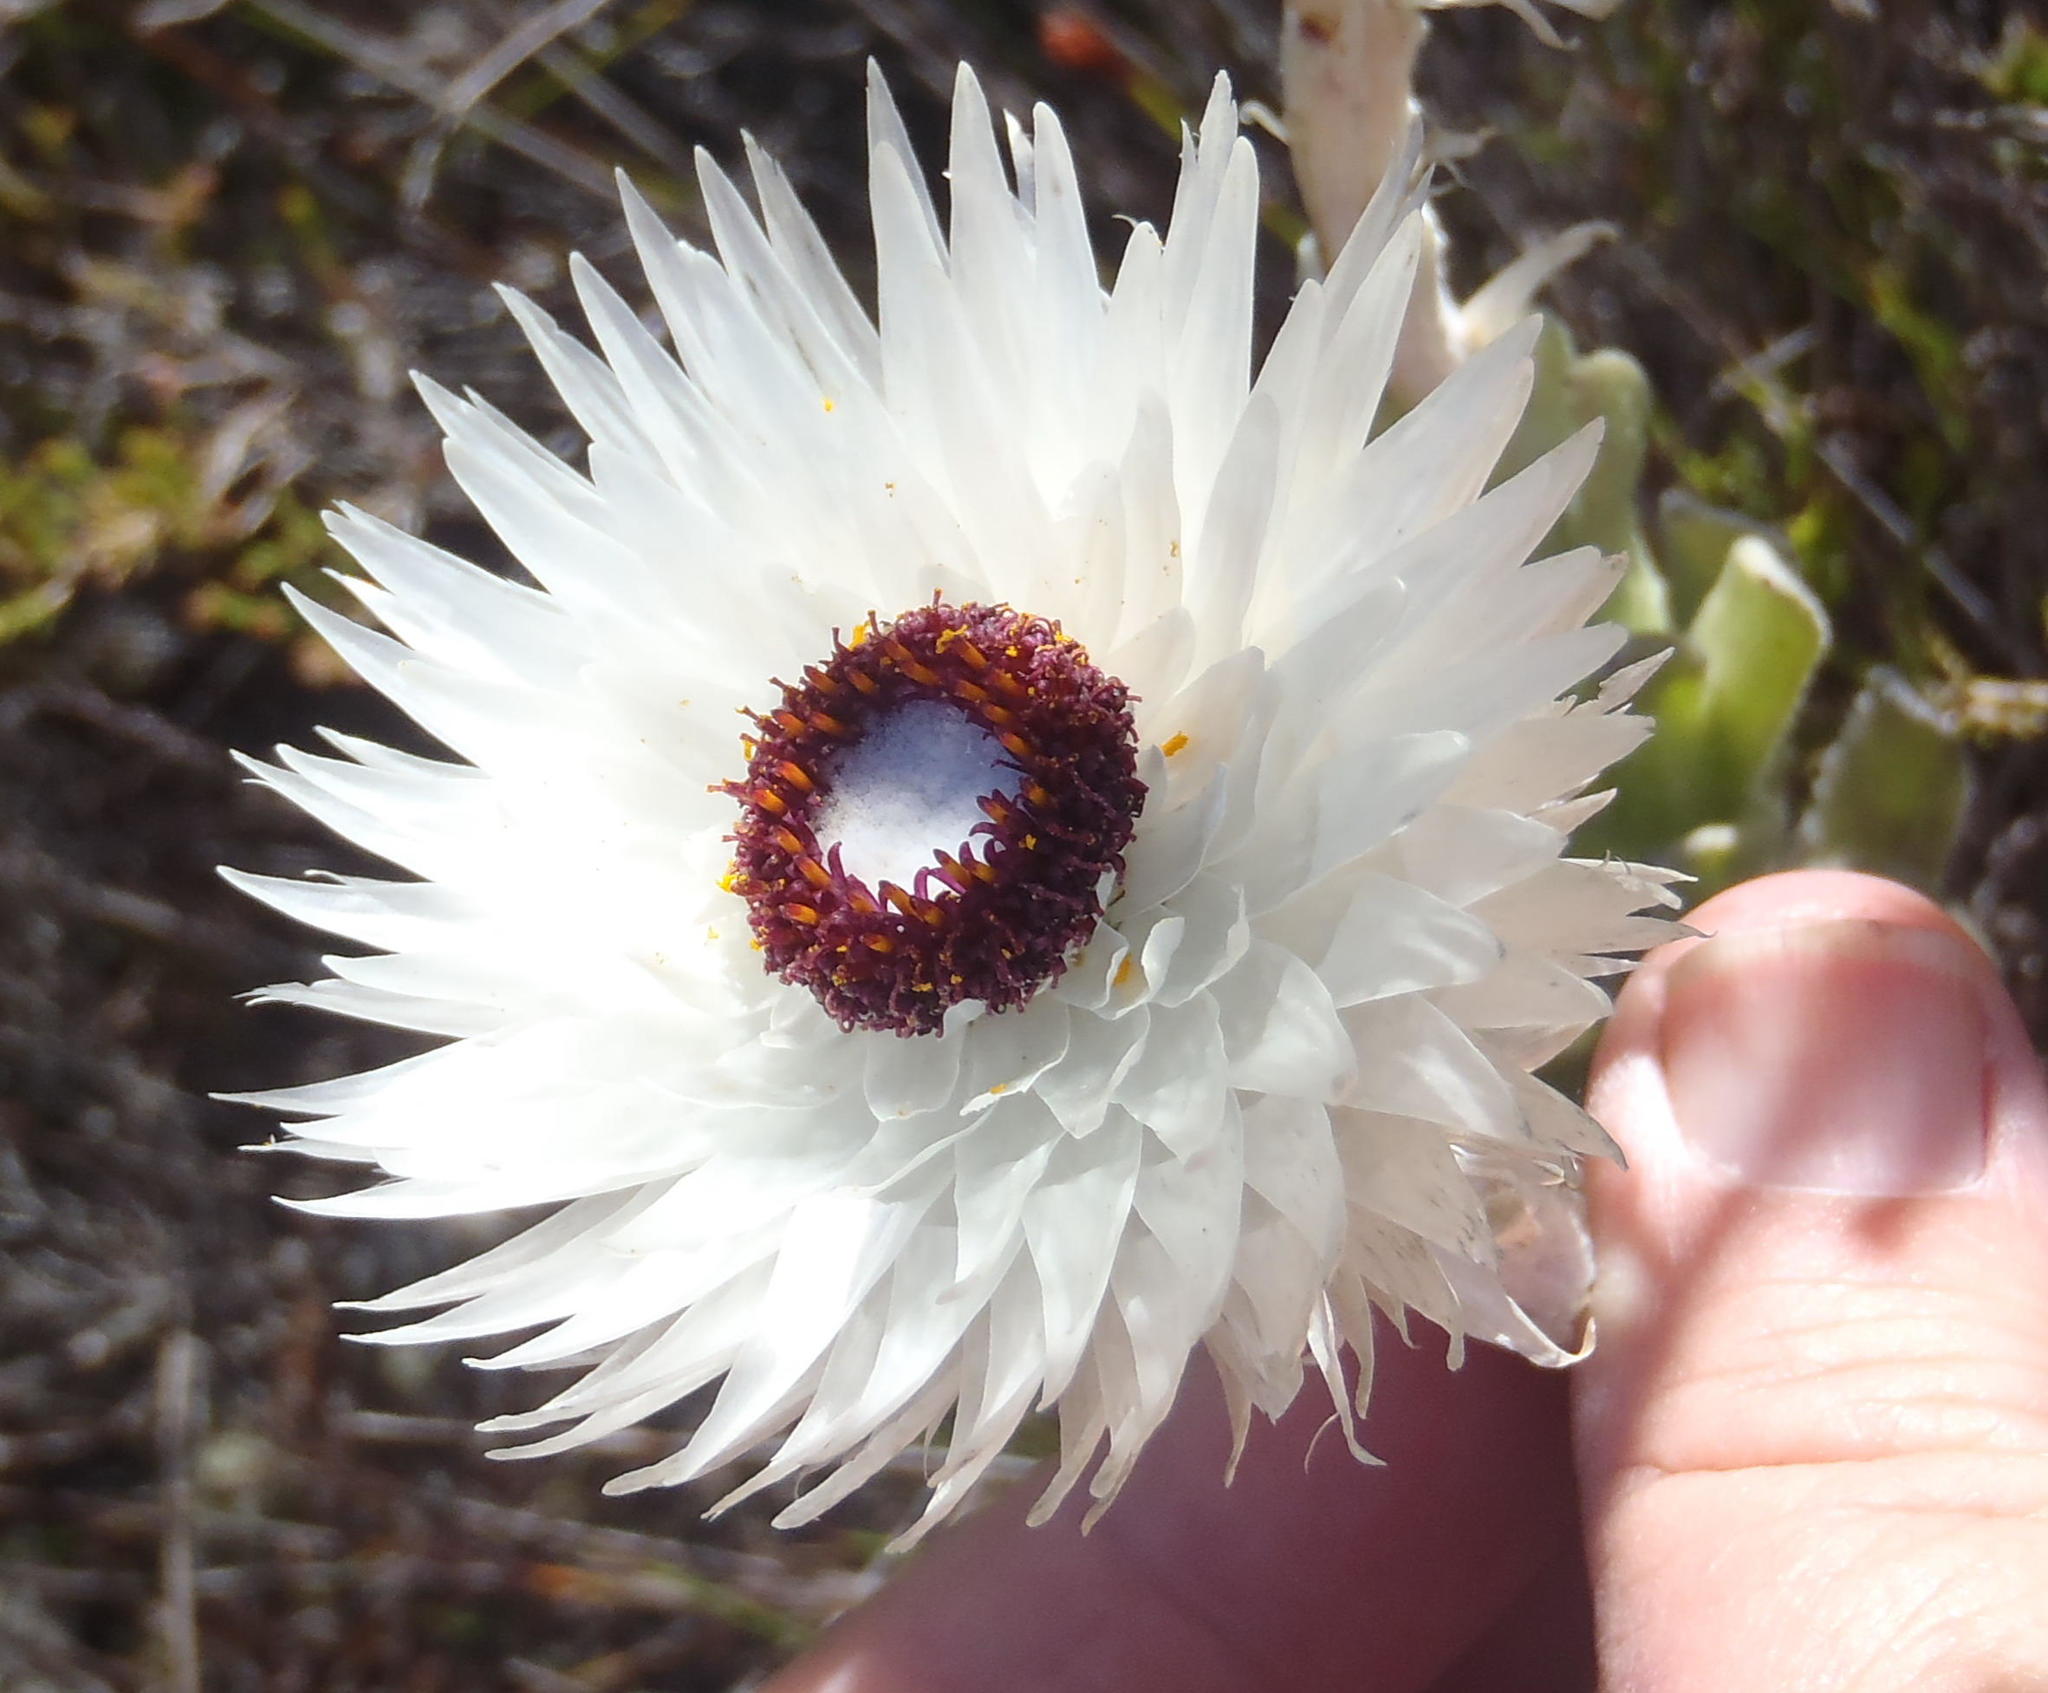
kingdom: Plantae
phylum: Tracheophyta
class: Magnoliopsida
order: Asterales
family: Asteraceae
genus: Syncarpha
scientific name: Syncarpha vestita
